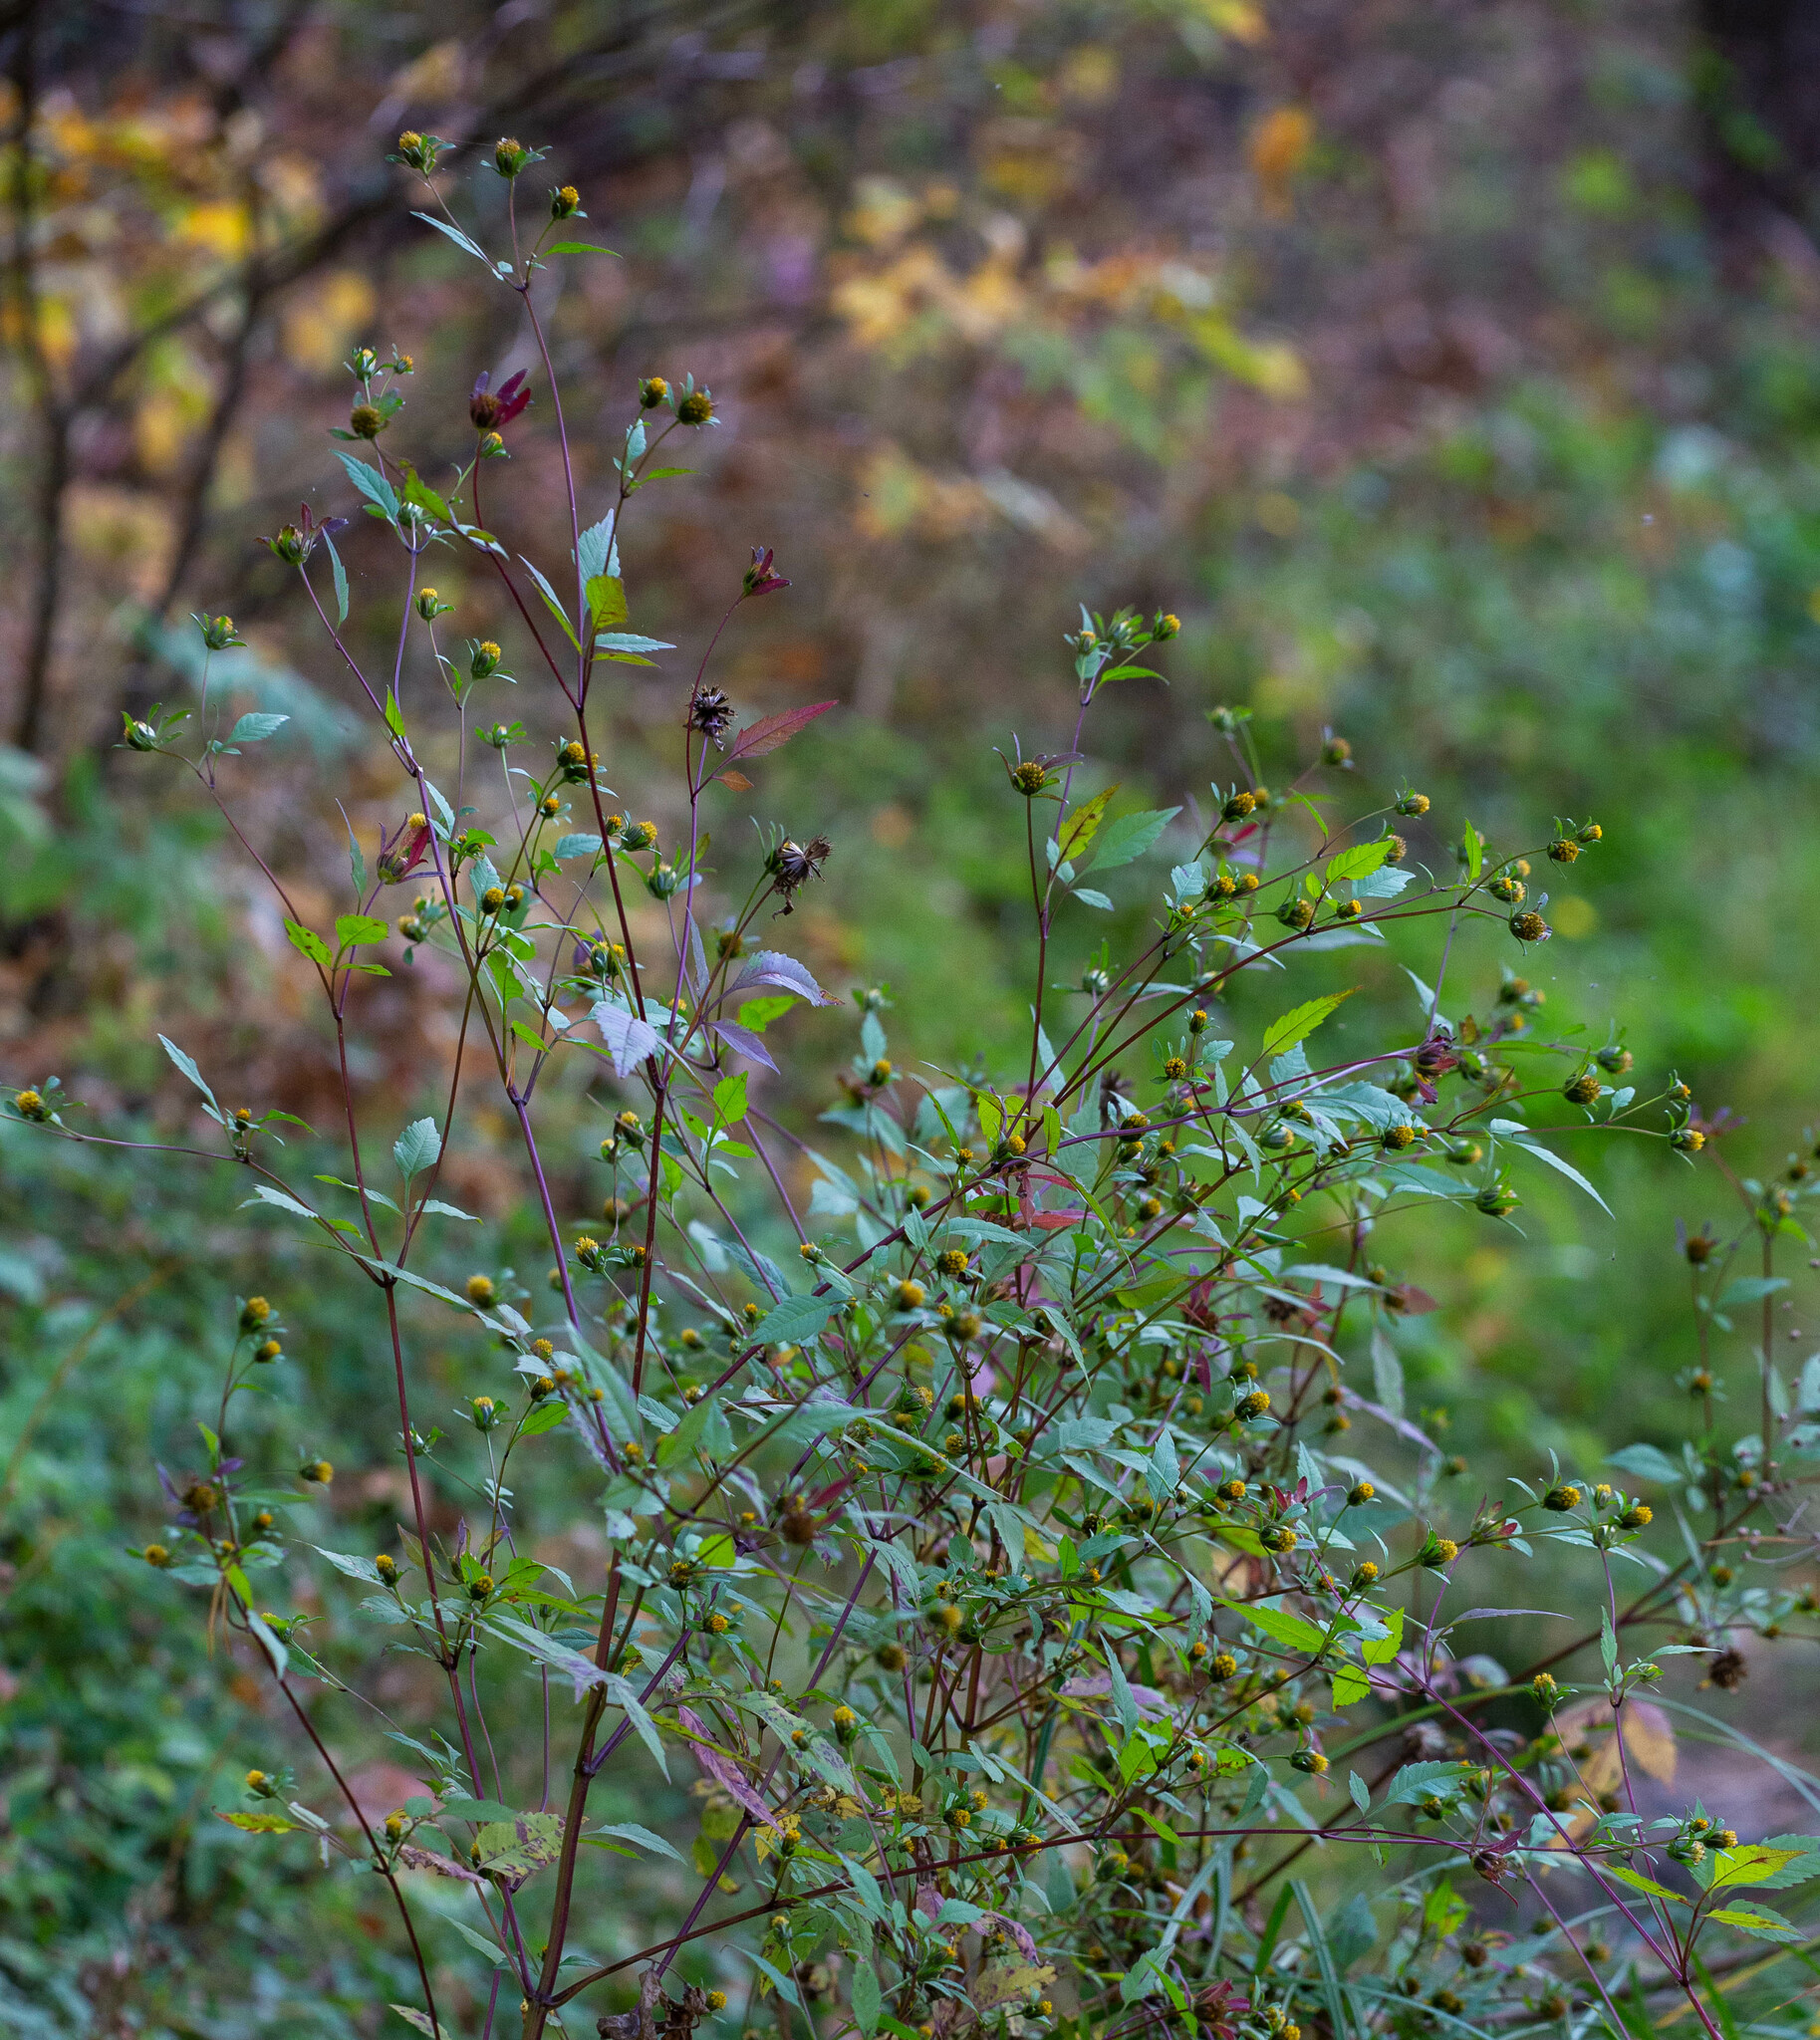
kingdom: Plantae
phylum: Tracheophyta
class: Magnoliopsida
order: Asterales
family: Asteraceae
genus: Bidens
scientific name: Bidens frondosa
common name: Beggarticks
